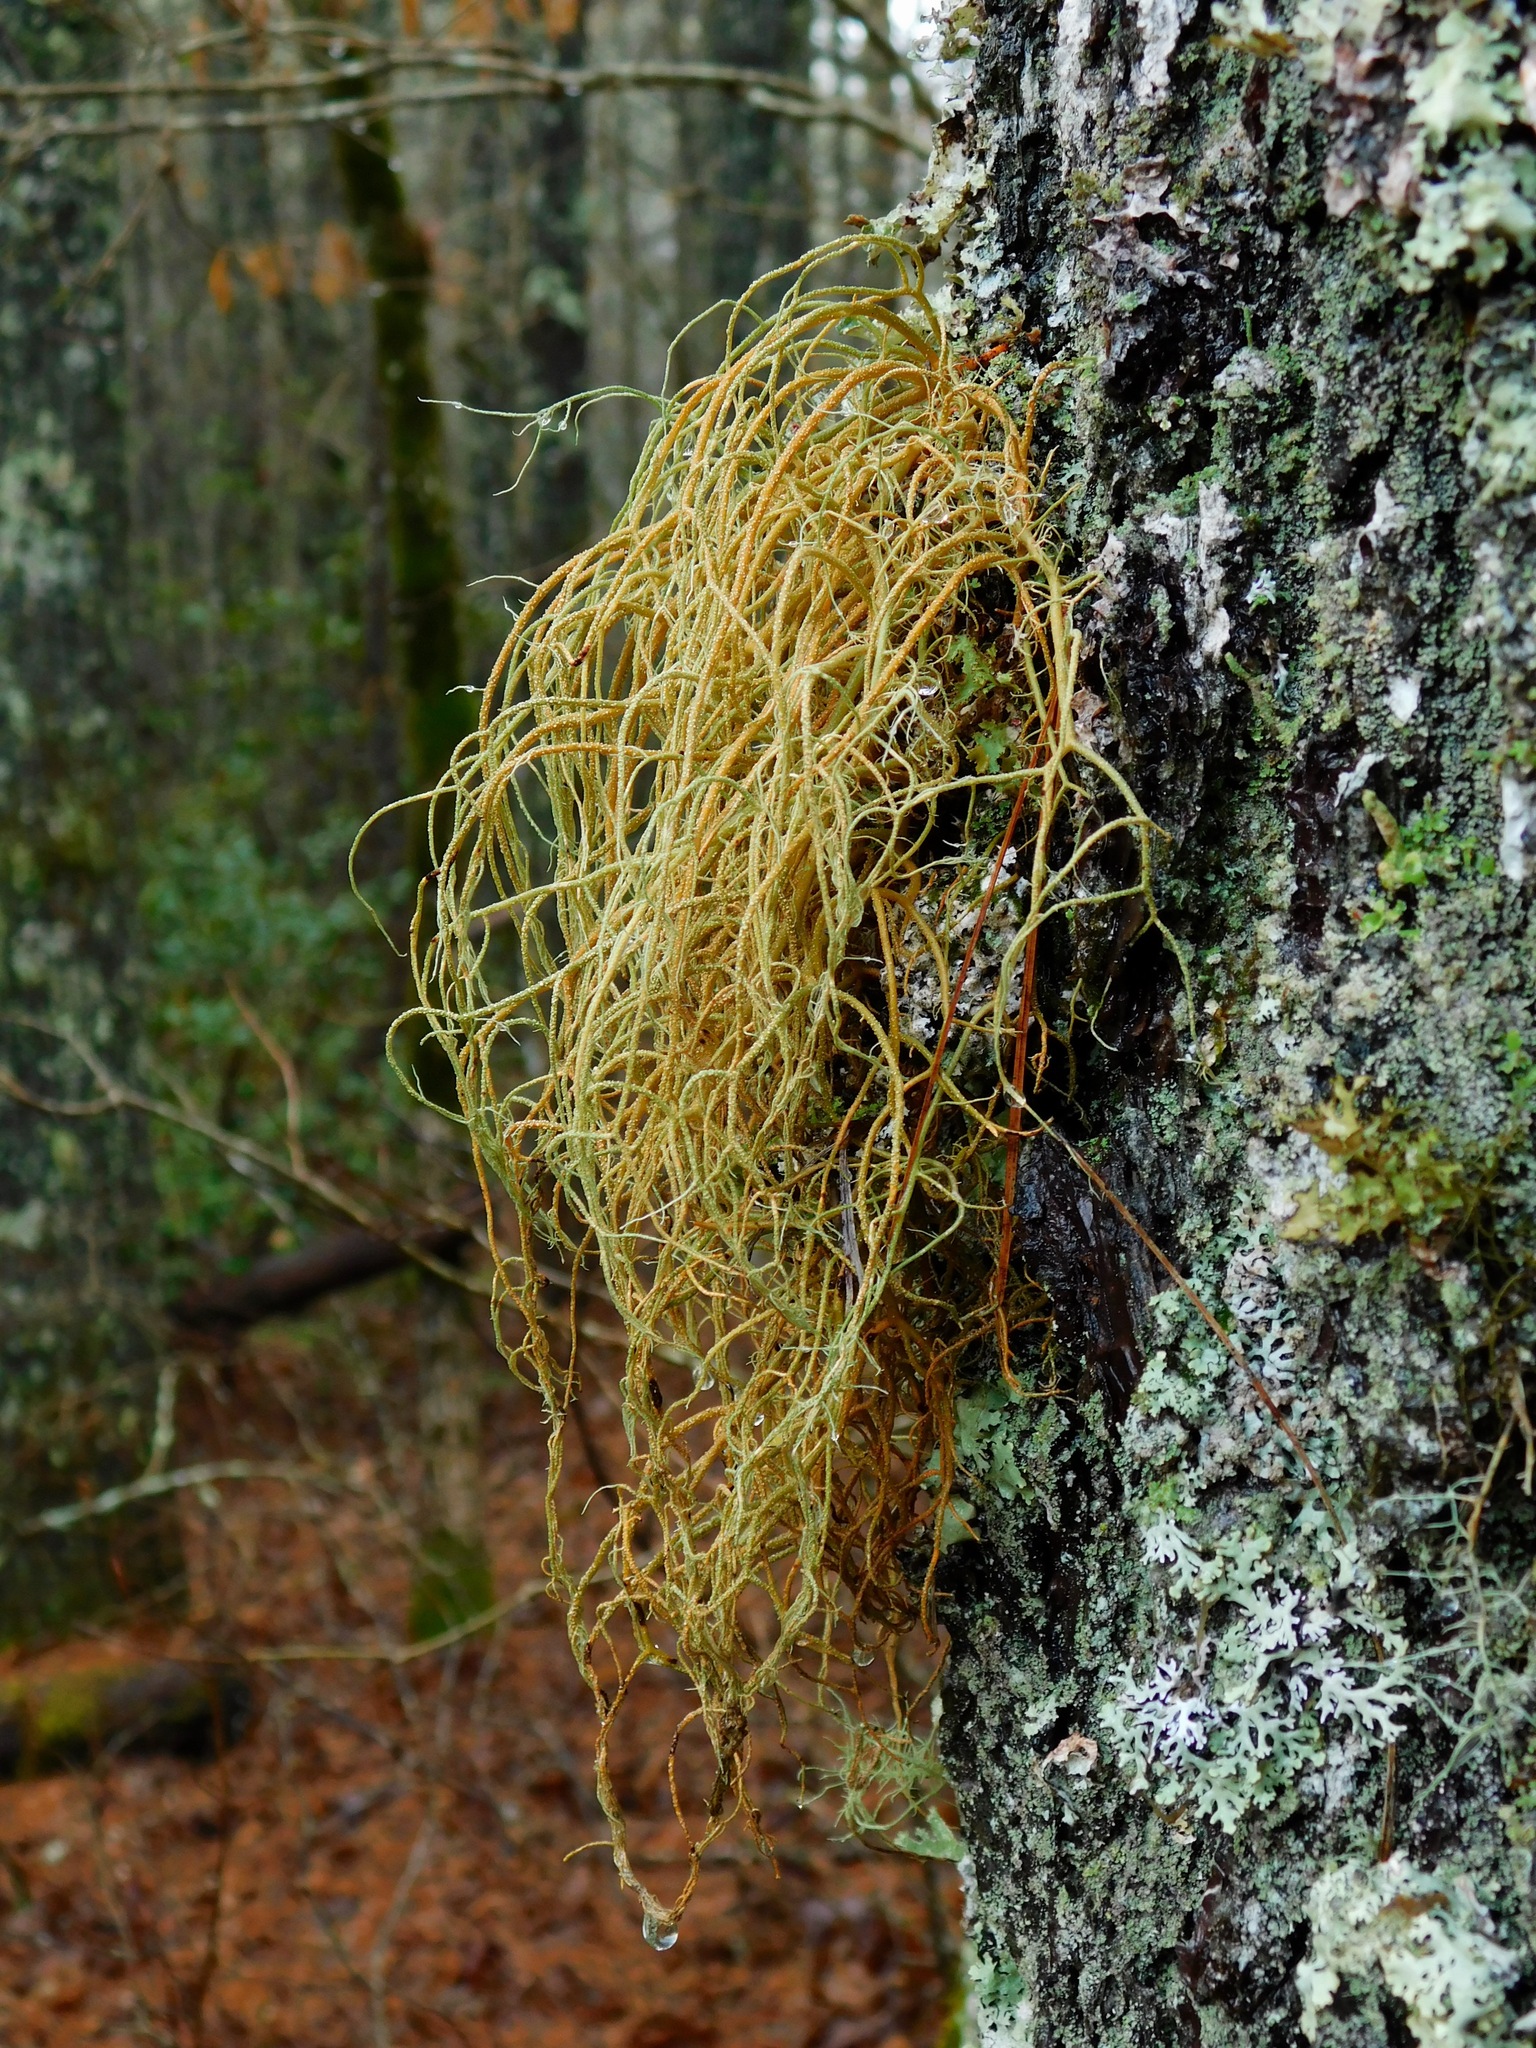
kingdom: Fungi
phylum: Ascomycota
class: Lecanoromycetes
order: Lecanorales
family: Parmeliaceae
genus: Usnea
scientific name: Usnea rubicunda
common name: Red beard lichen
